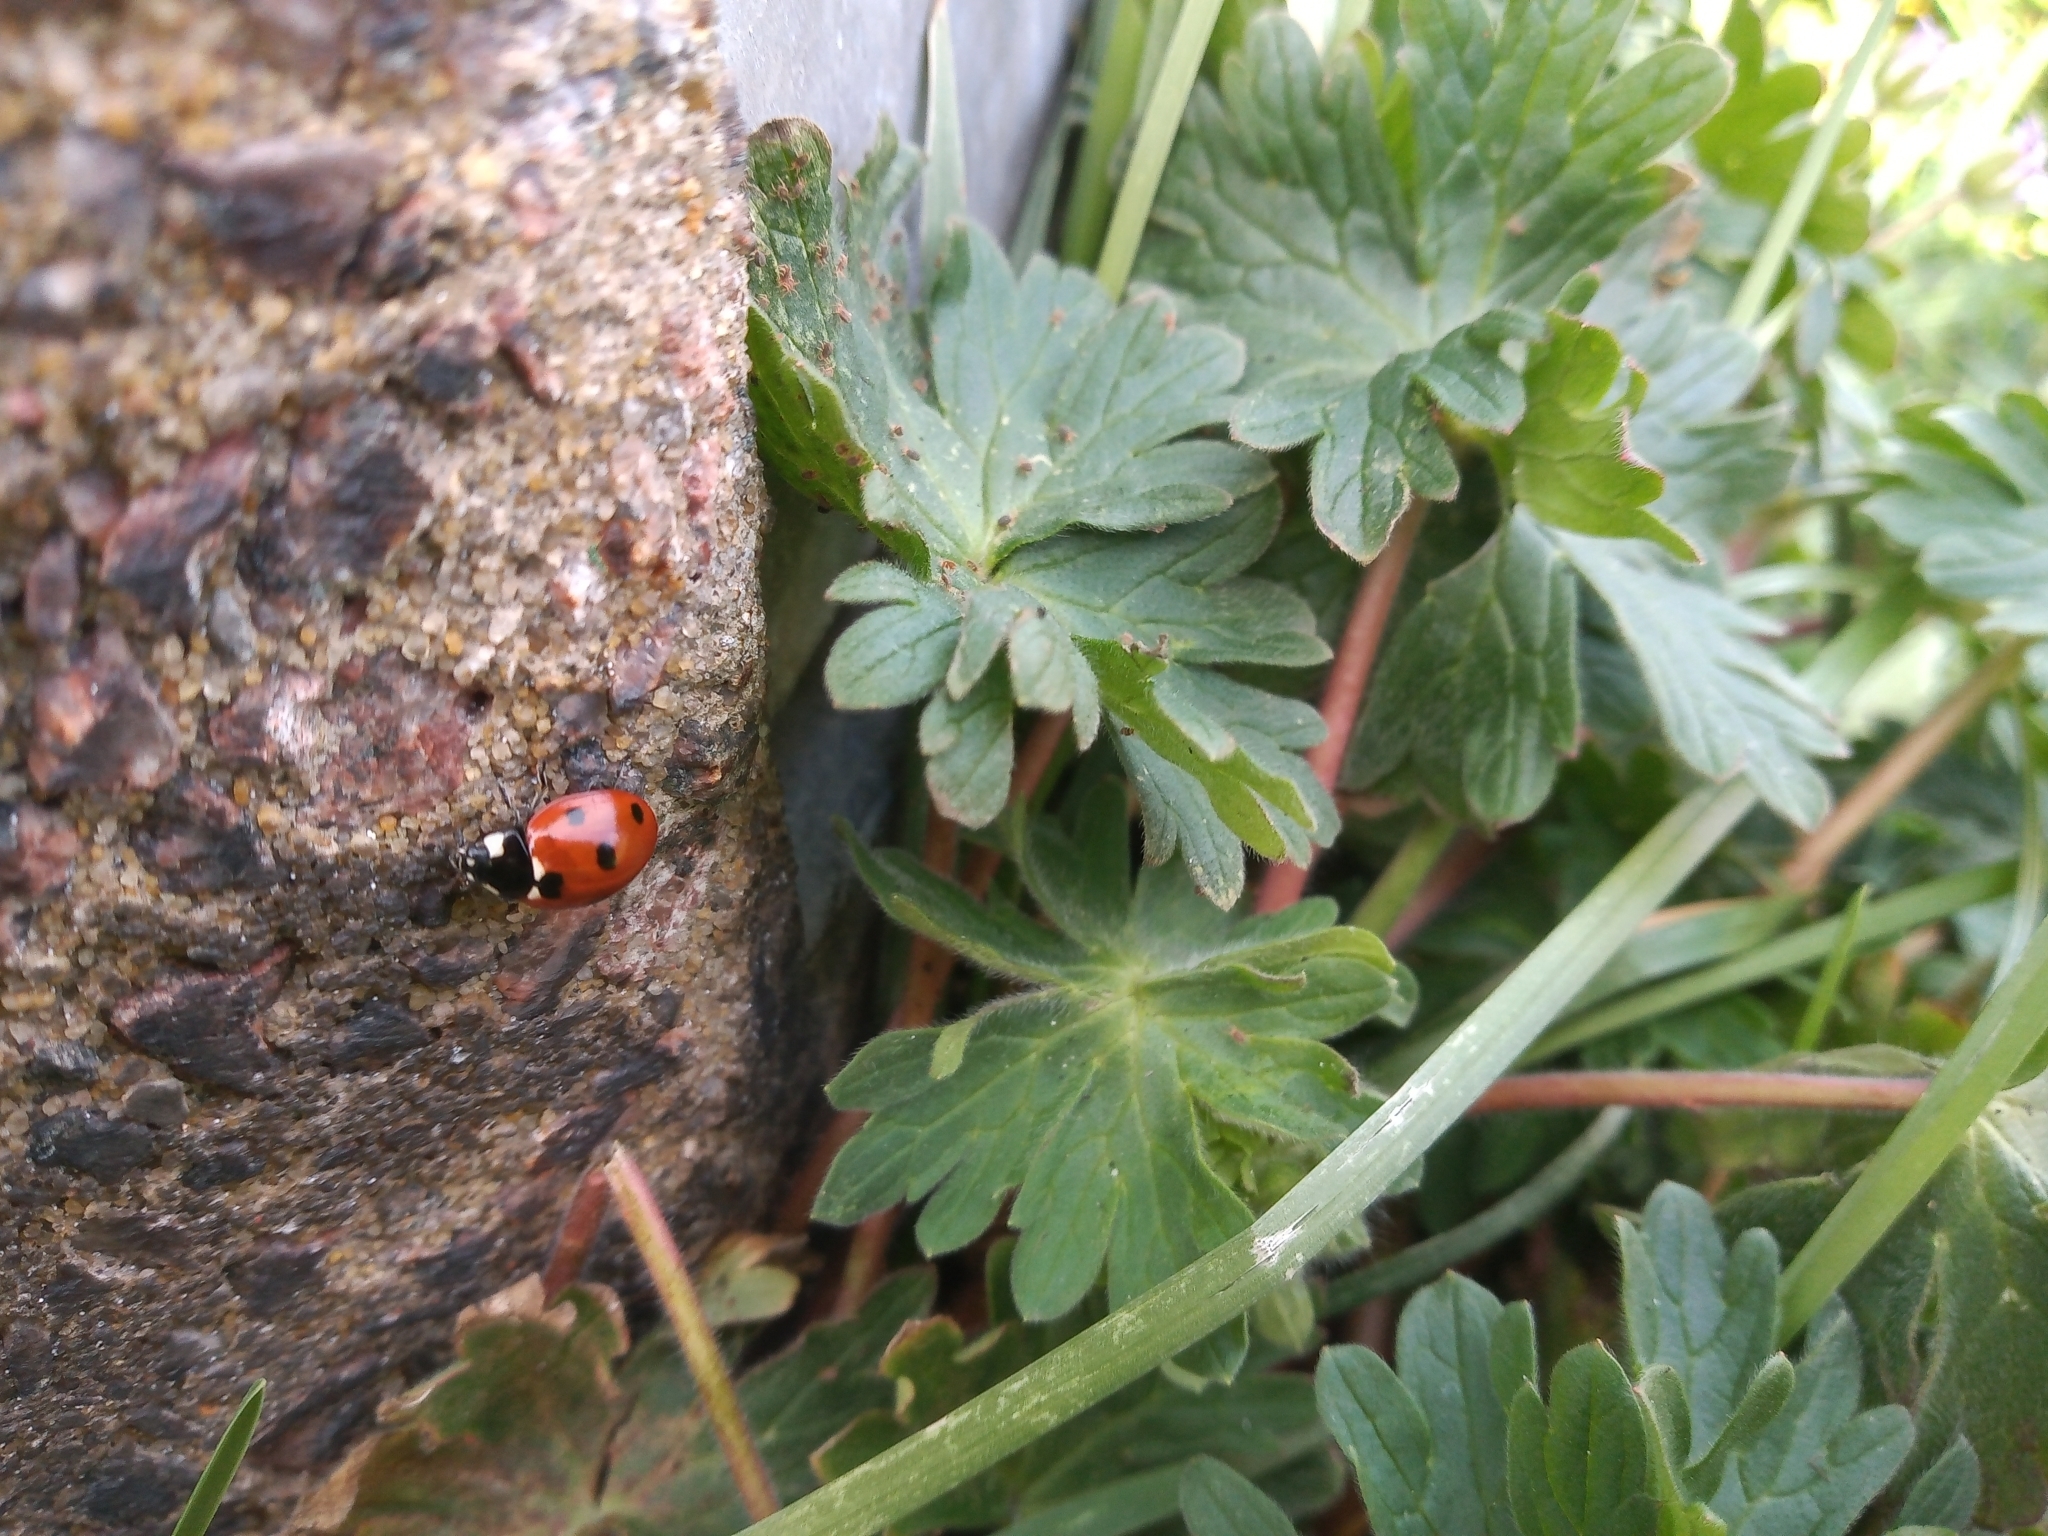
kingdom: Animalia
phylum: Arthropoda
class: Insecta
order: Coleoptera
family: Coccinellidae
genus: Coccinella
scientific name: Coccinella septempunctata
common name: Sevenspotted lady beetle
